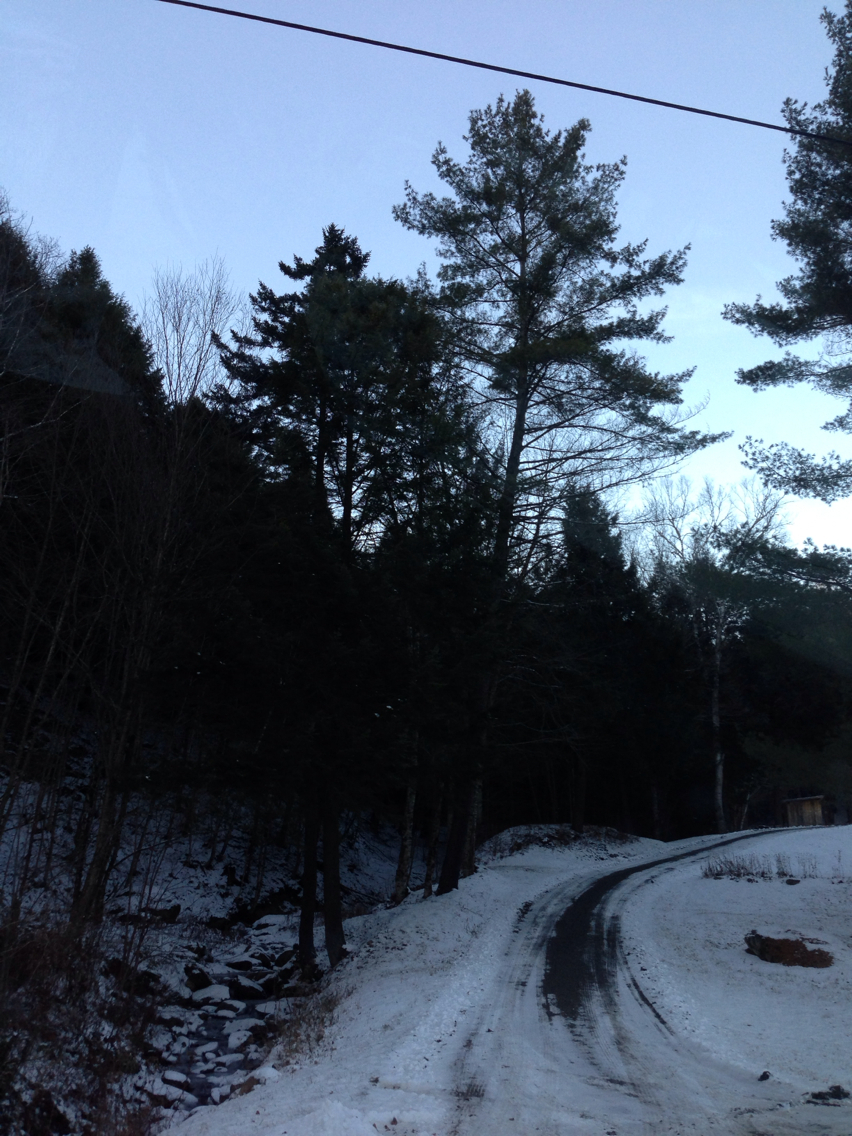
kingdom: Plantae
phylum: Tracheophyta
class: Pinopsida
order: Pinales
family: Pinaceae
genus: Pinus
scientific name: Pinus strobus
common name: Weymouth pine
